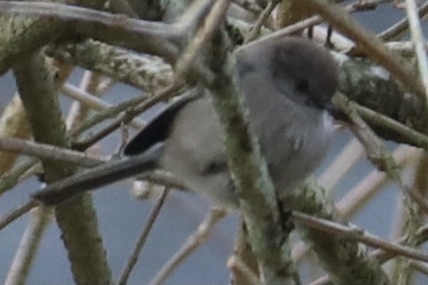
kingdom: Animalia
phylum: Chordata
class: Aves
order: Passeriformes
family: Aegithalidae
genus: Psaltriparus
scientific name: Psaltriparus minimus
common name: American bushtit
